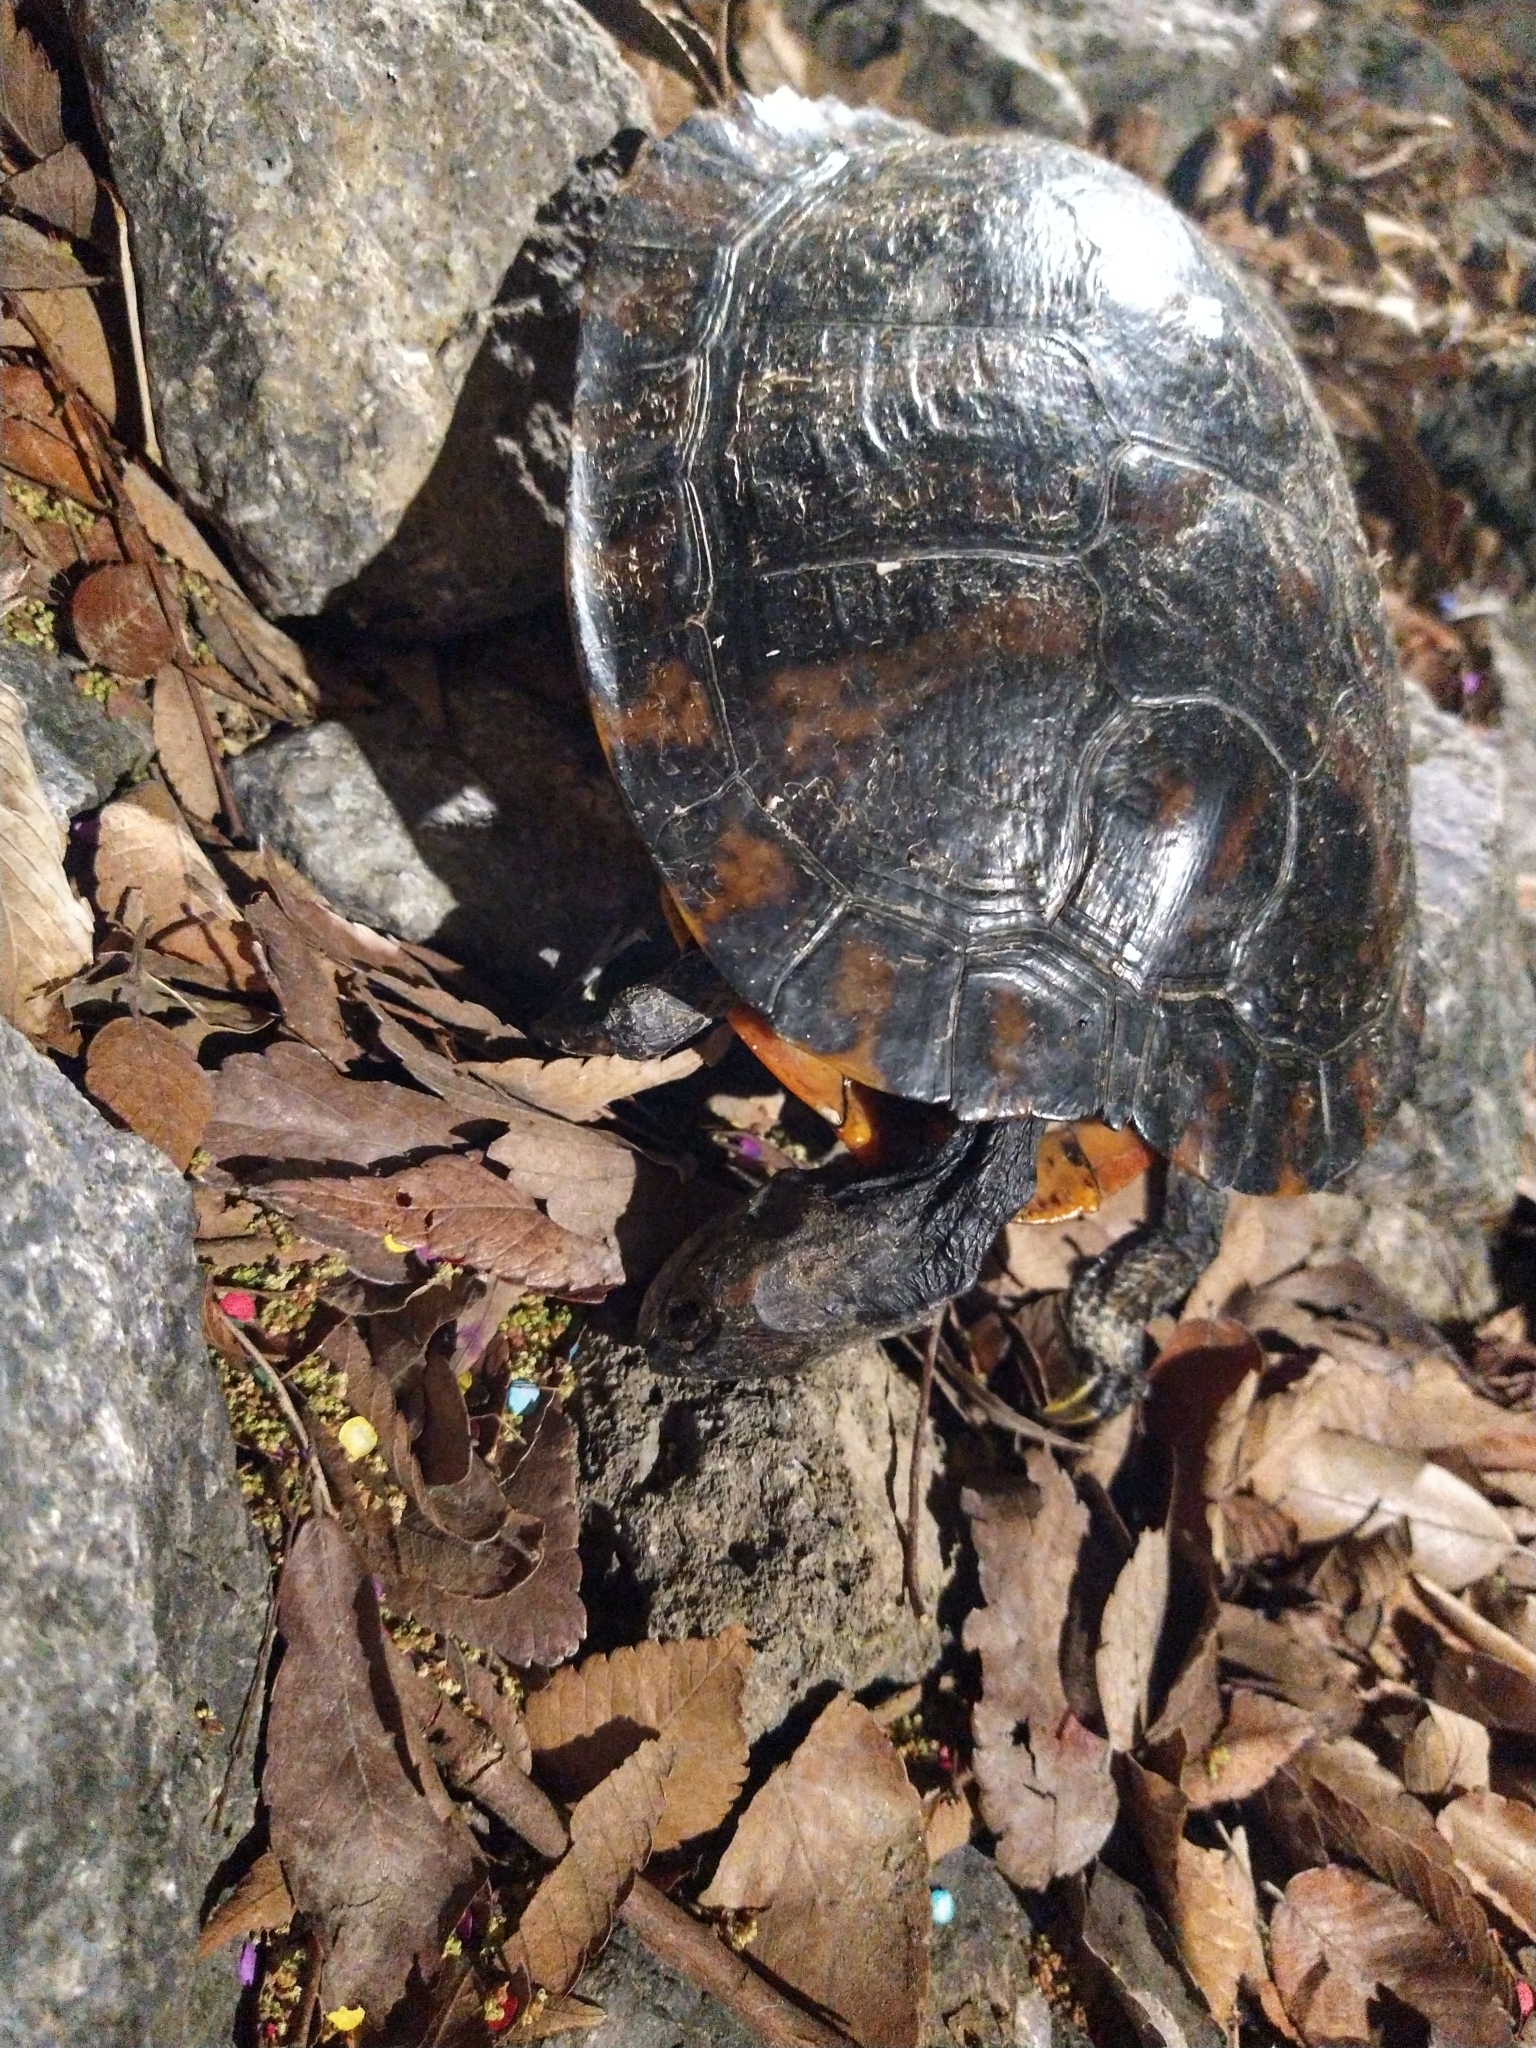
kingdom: Animalia
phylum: Chordata
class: Testudines
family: Emydidae
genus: Trachemys
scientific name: Trachemys scripta
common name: Slider
